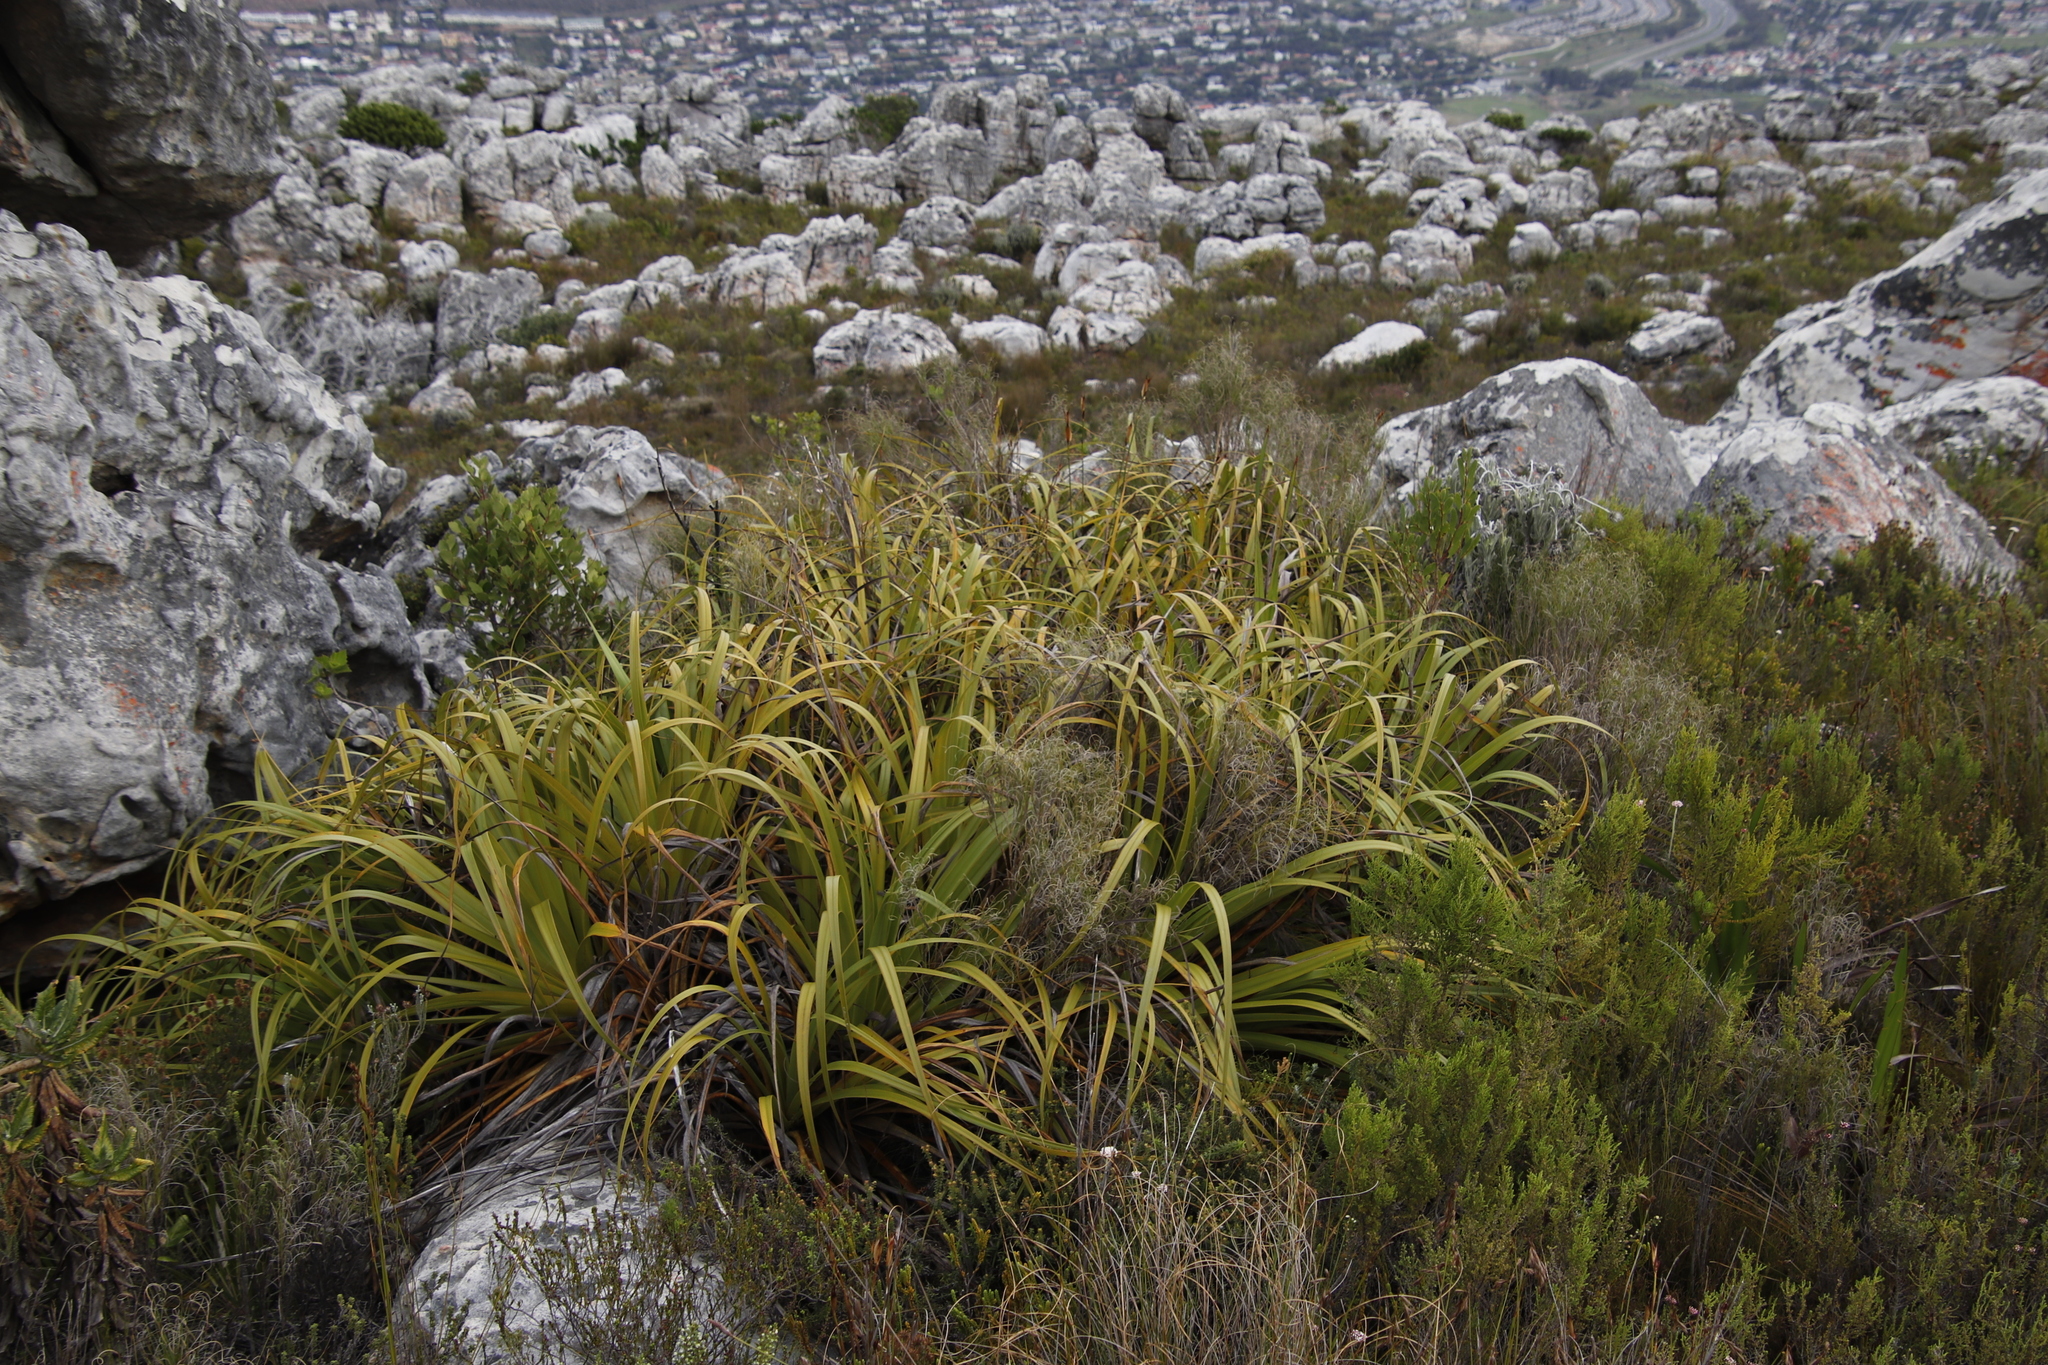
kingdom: Plantae
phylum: Tracheophyta
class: Liliopsida
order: Poales
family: Cyperaceae
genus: Tetraria
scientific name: Tetraria thermalis
